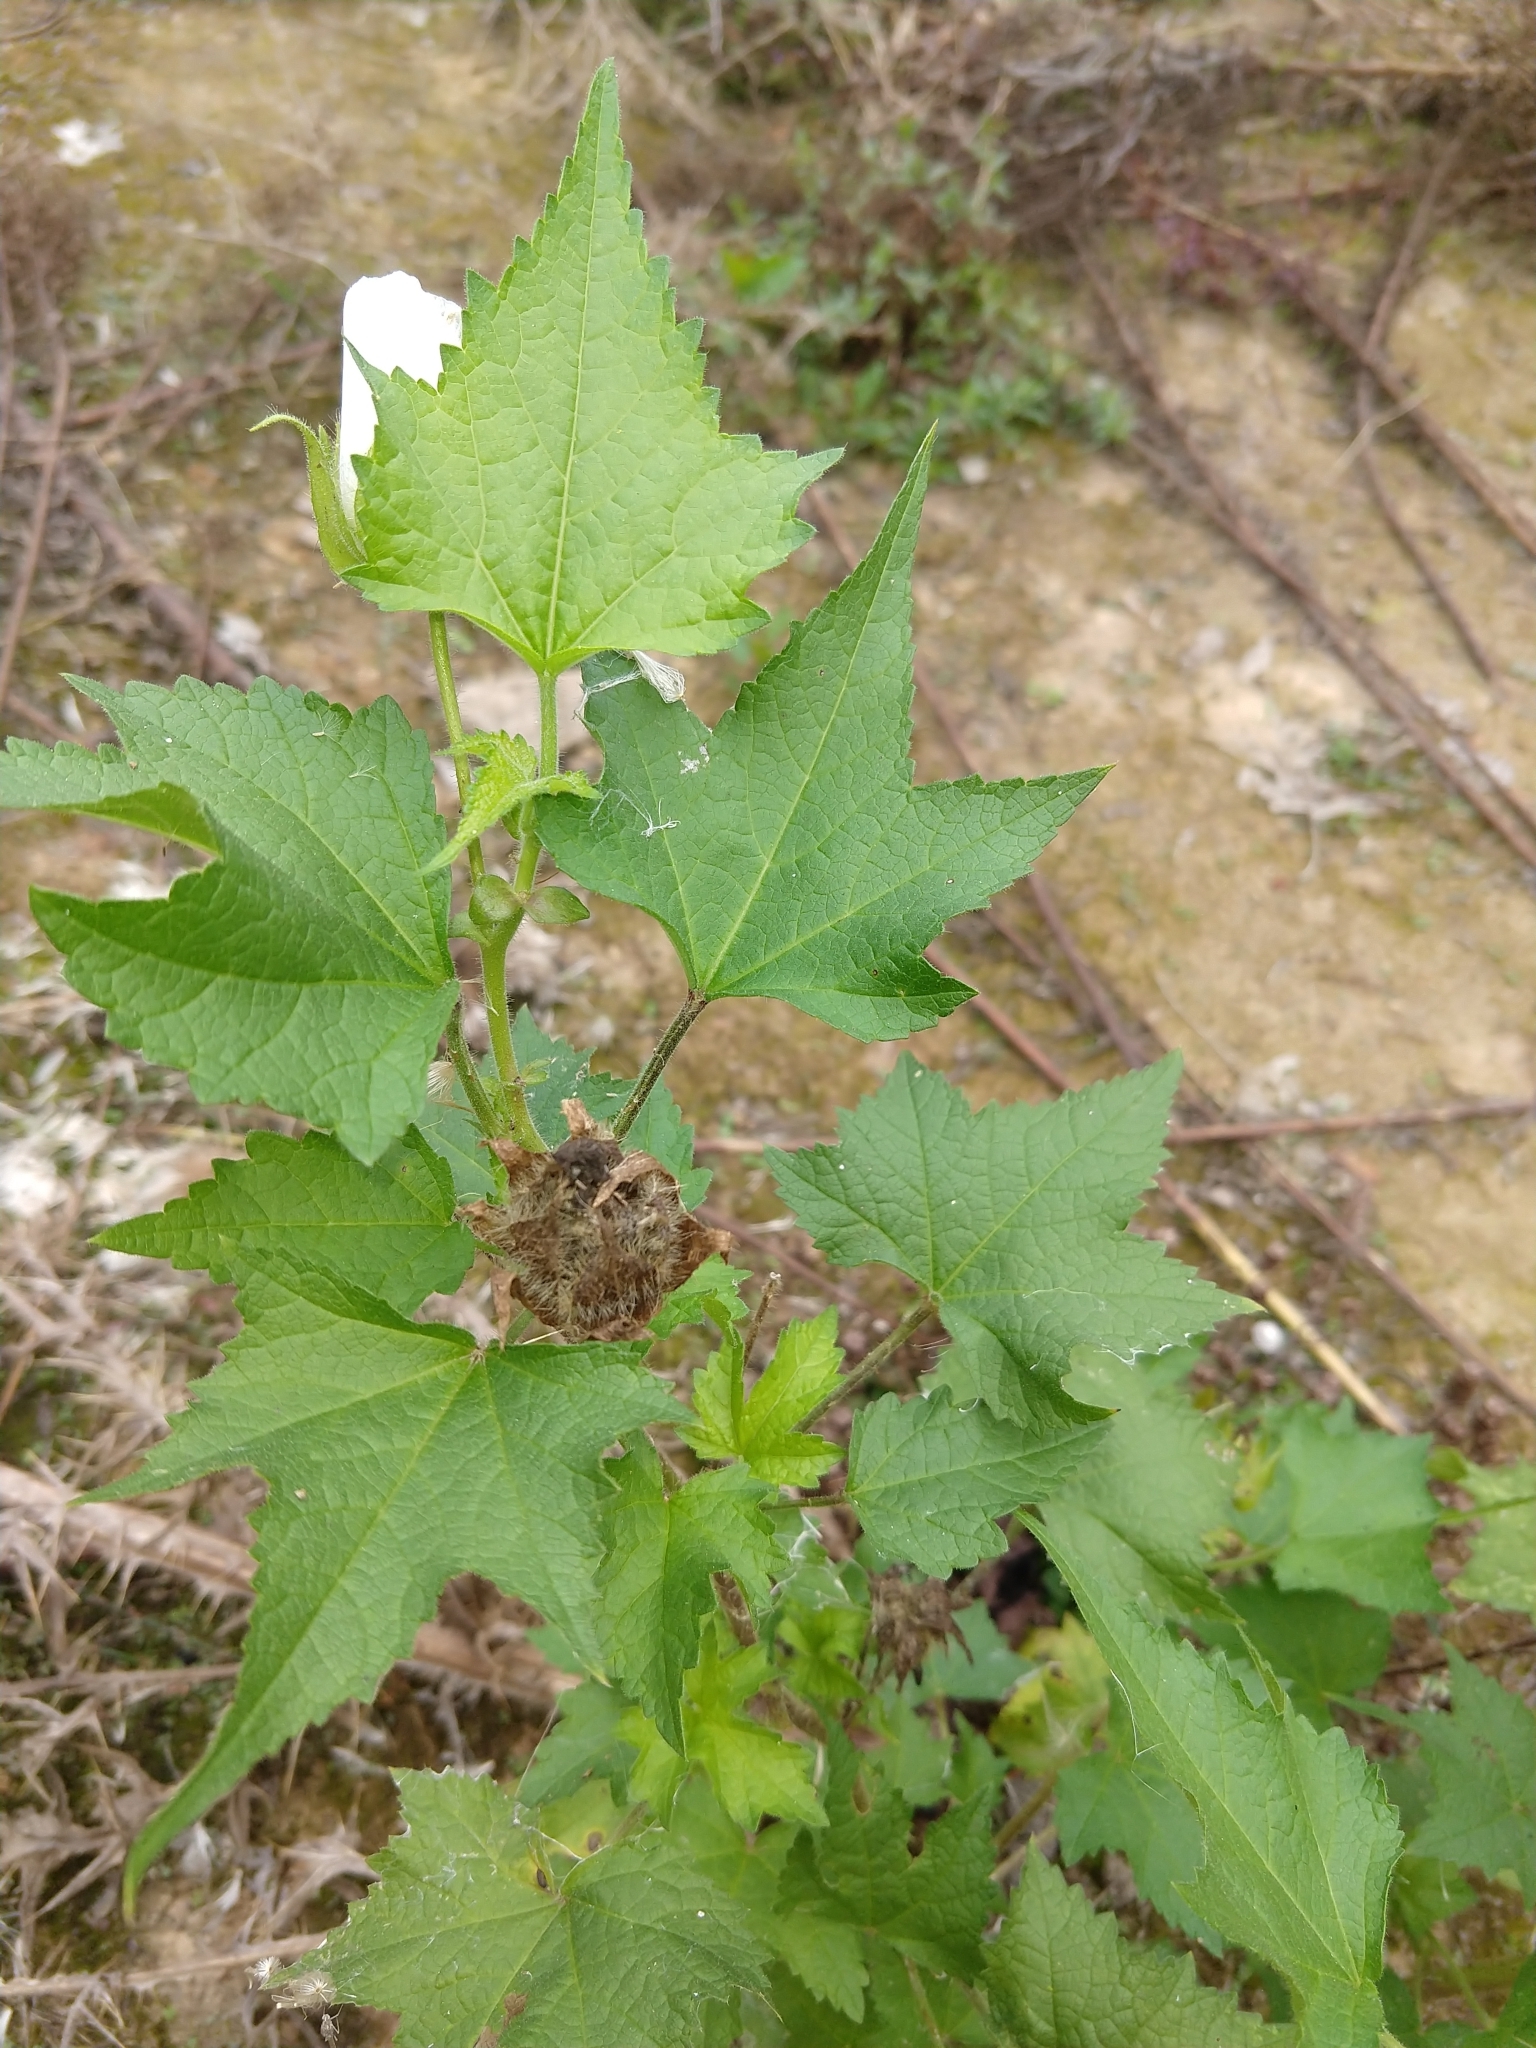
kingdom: Plantae
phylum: Tracheophyta
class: Magnoliopsida
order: Malvales
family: Malvaceae
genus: Kitaibela
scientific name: Kitaibela vitifolia
